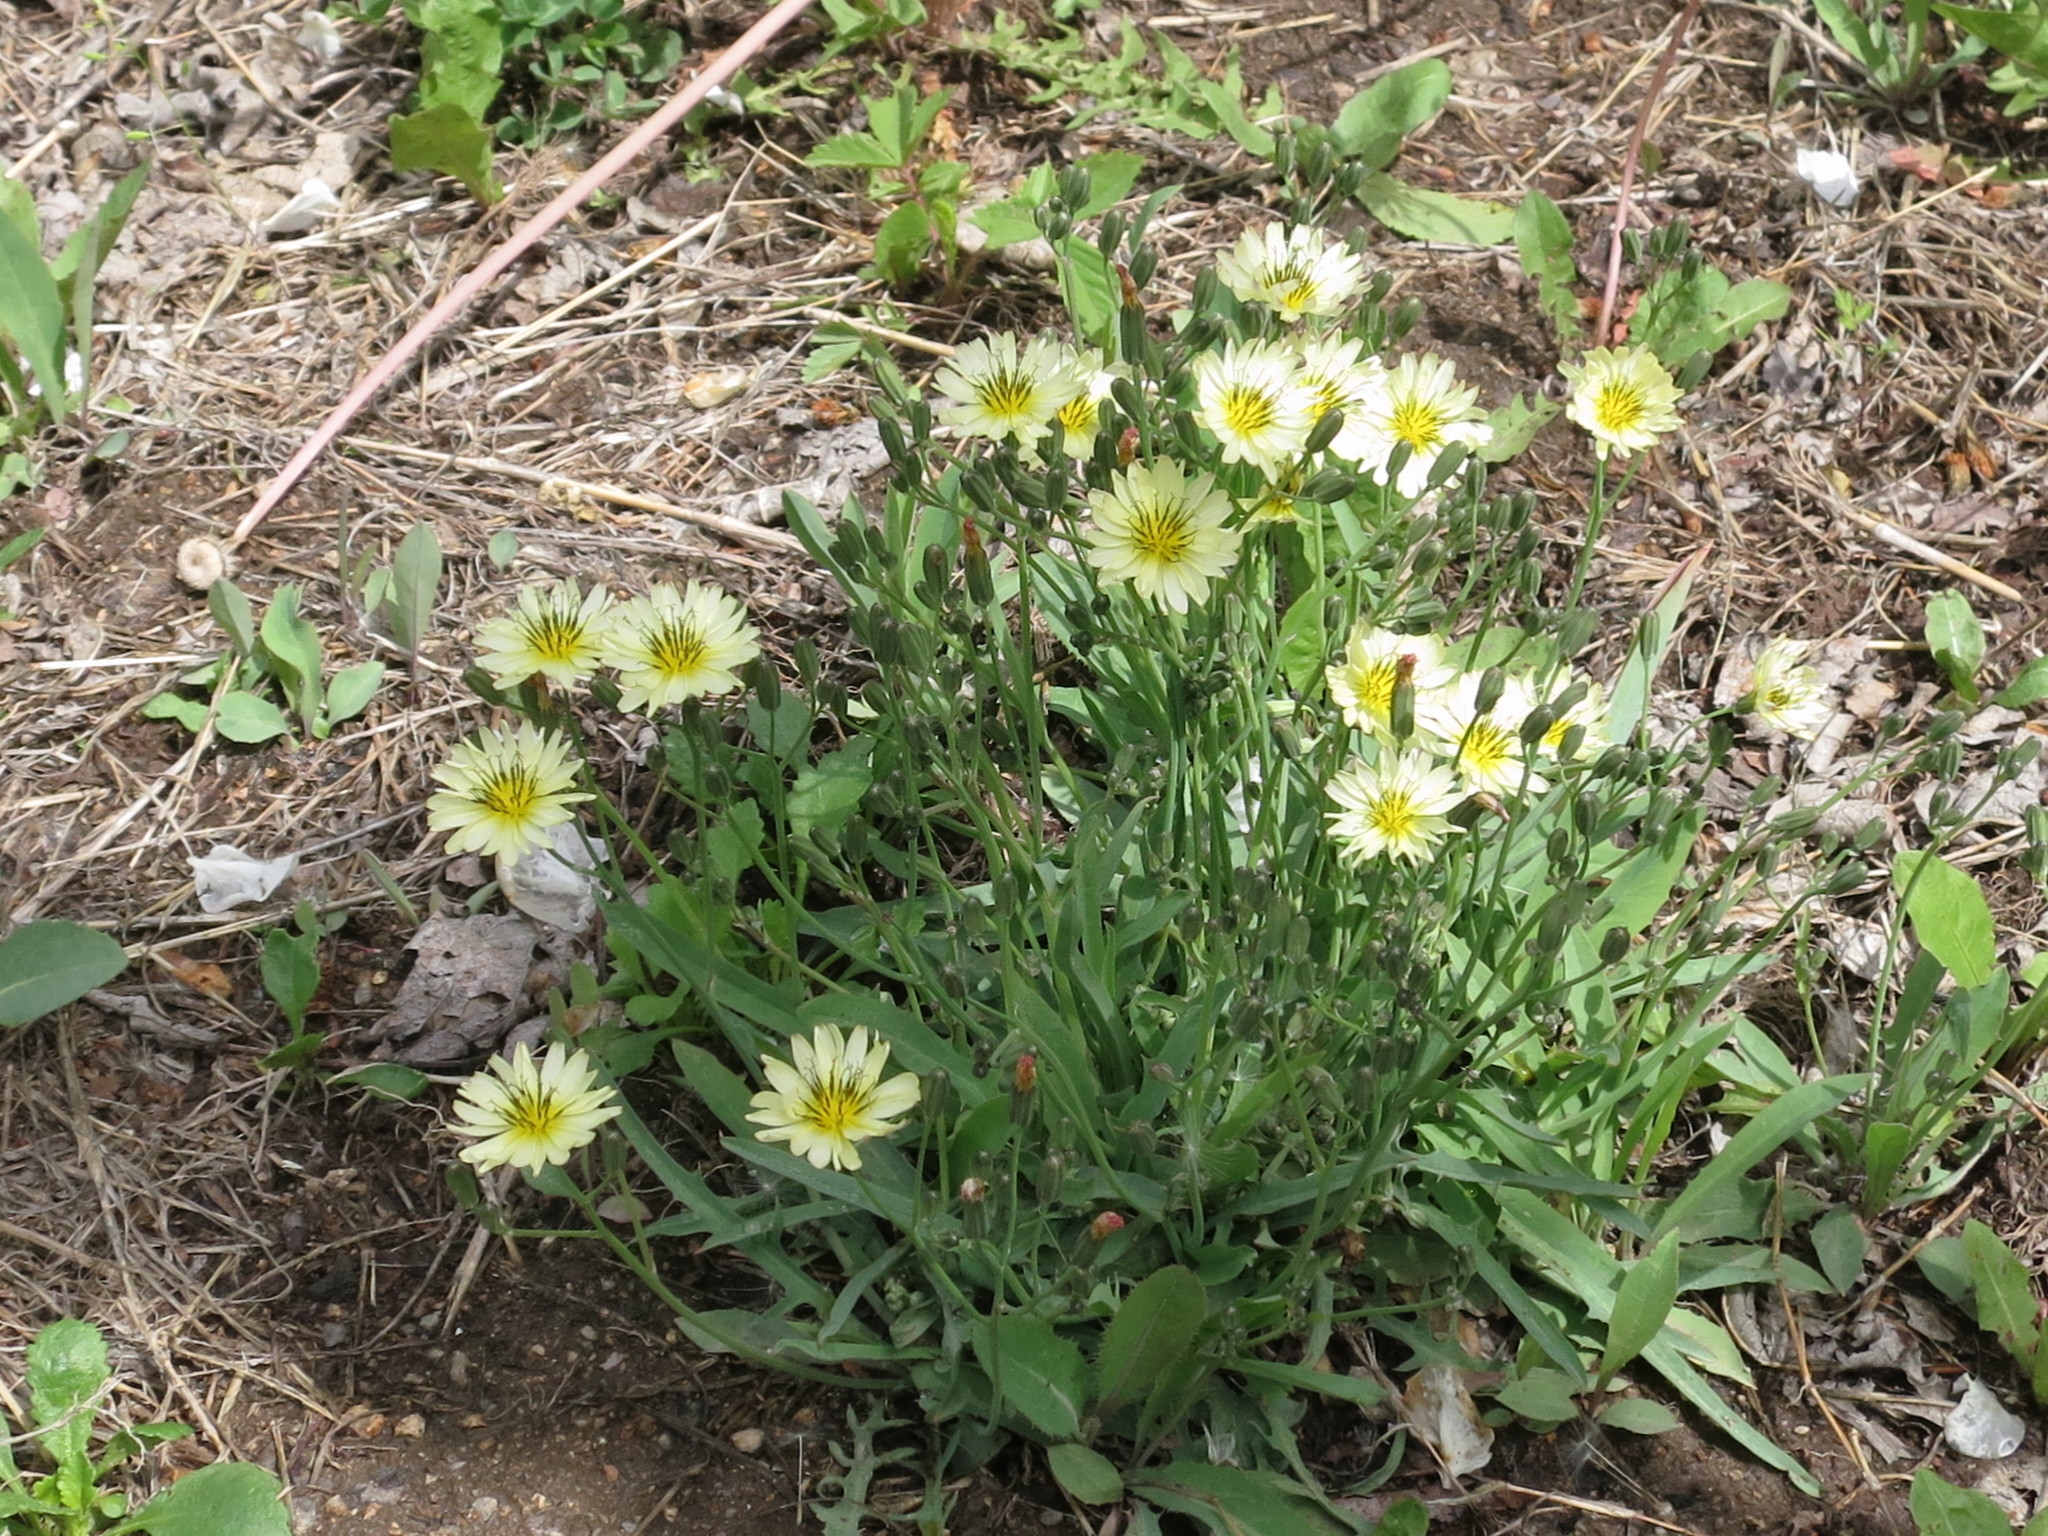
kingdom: Plantae
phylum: Tracheophyta
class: Magnoliopsida
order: Asterales
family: Asteraceae
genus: Ixeris
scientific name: Ixeris chinensis
